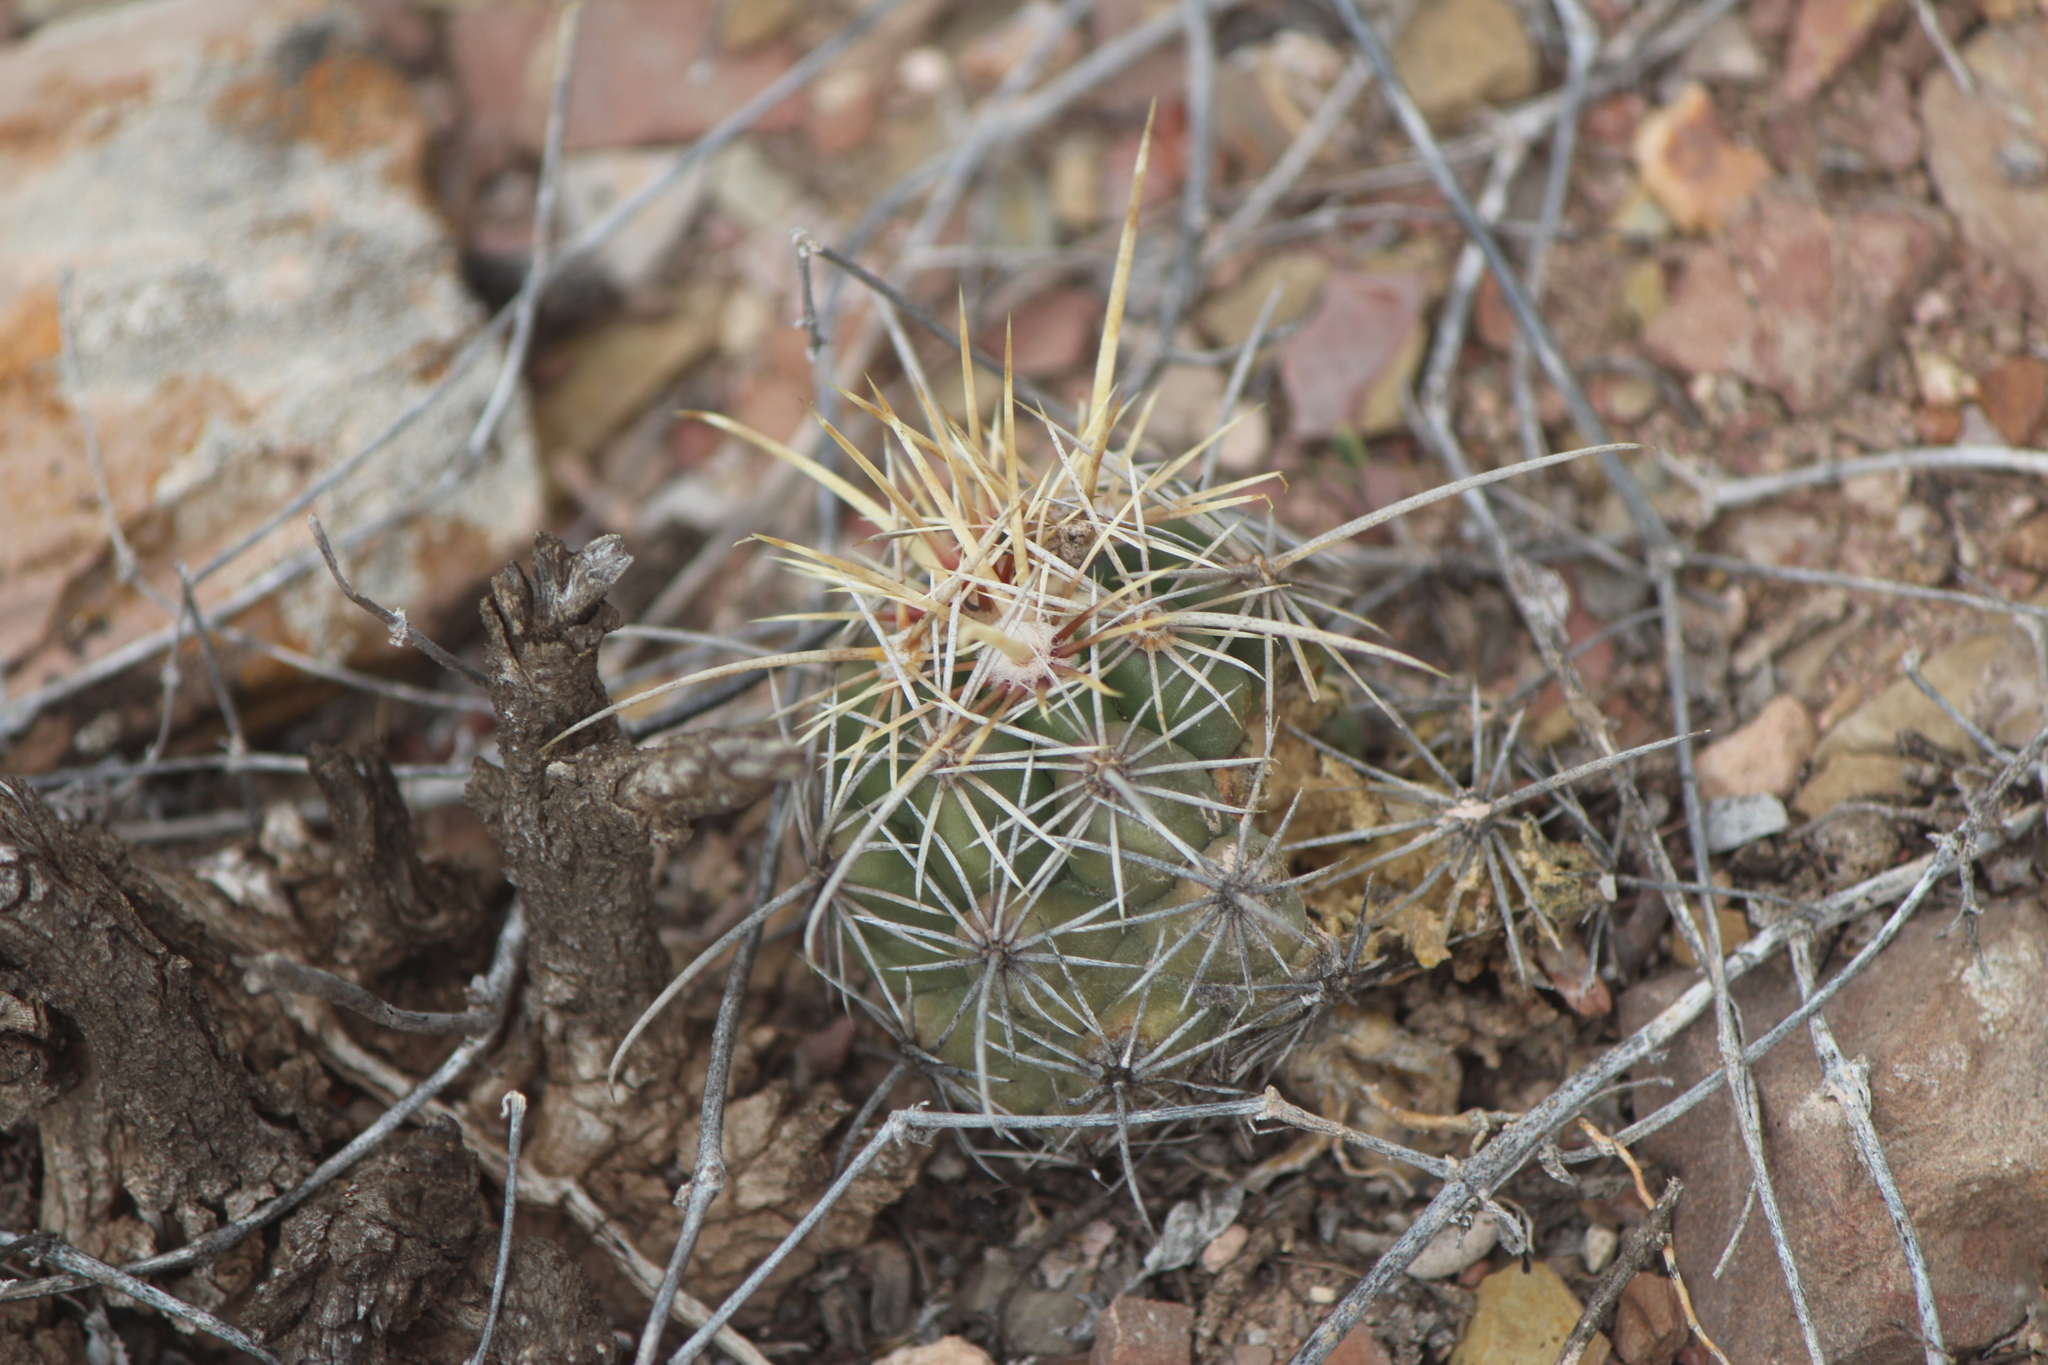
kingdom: Plantae
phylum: Tracheophyta
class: Magnoliopsida
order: Caryophyllales
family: Cactaceae
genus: Thelocactus
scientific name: Thelocactus leucacanthus
